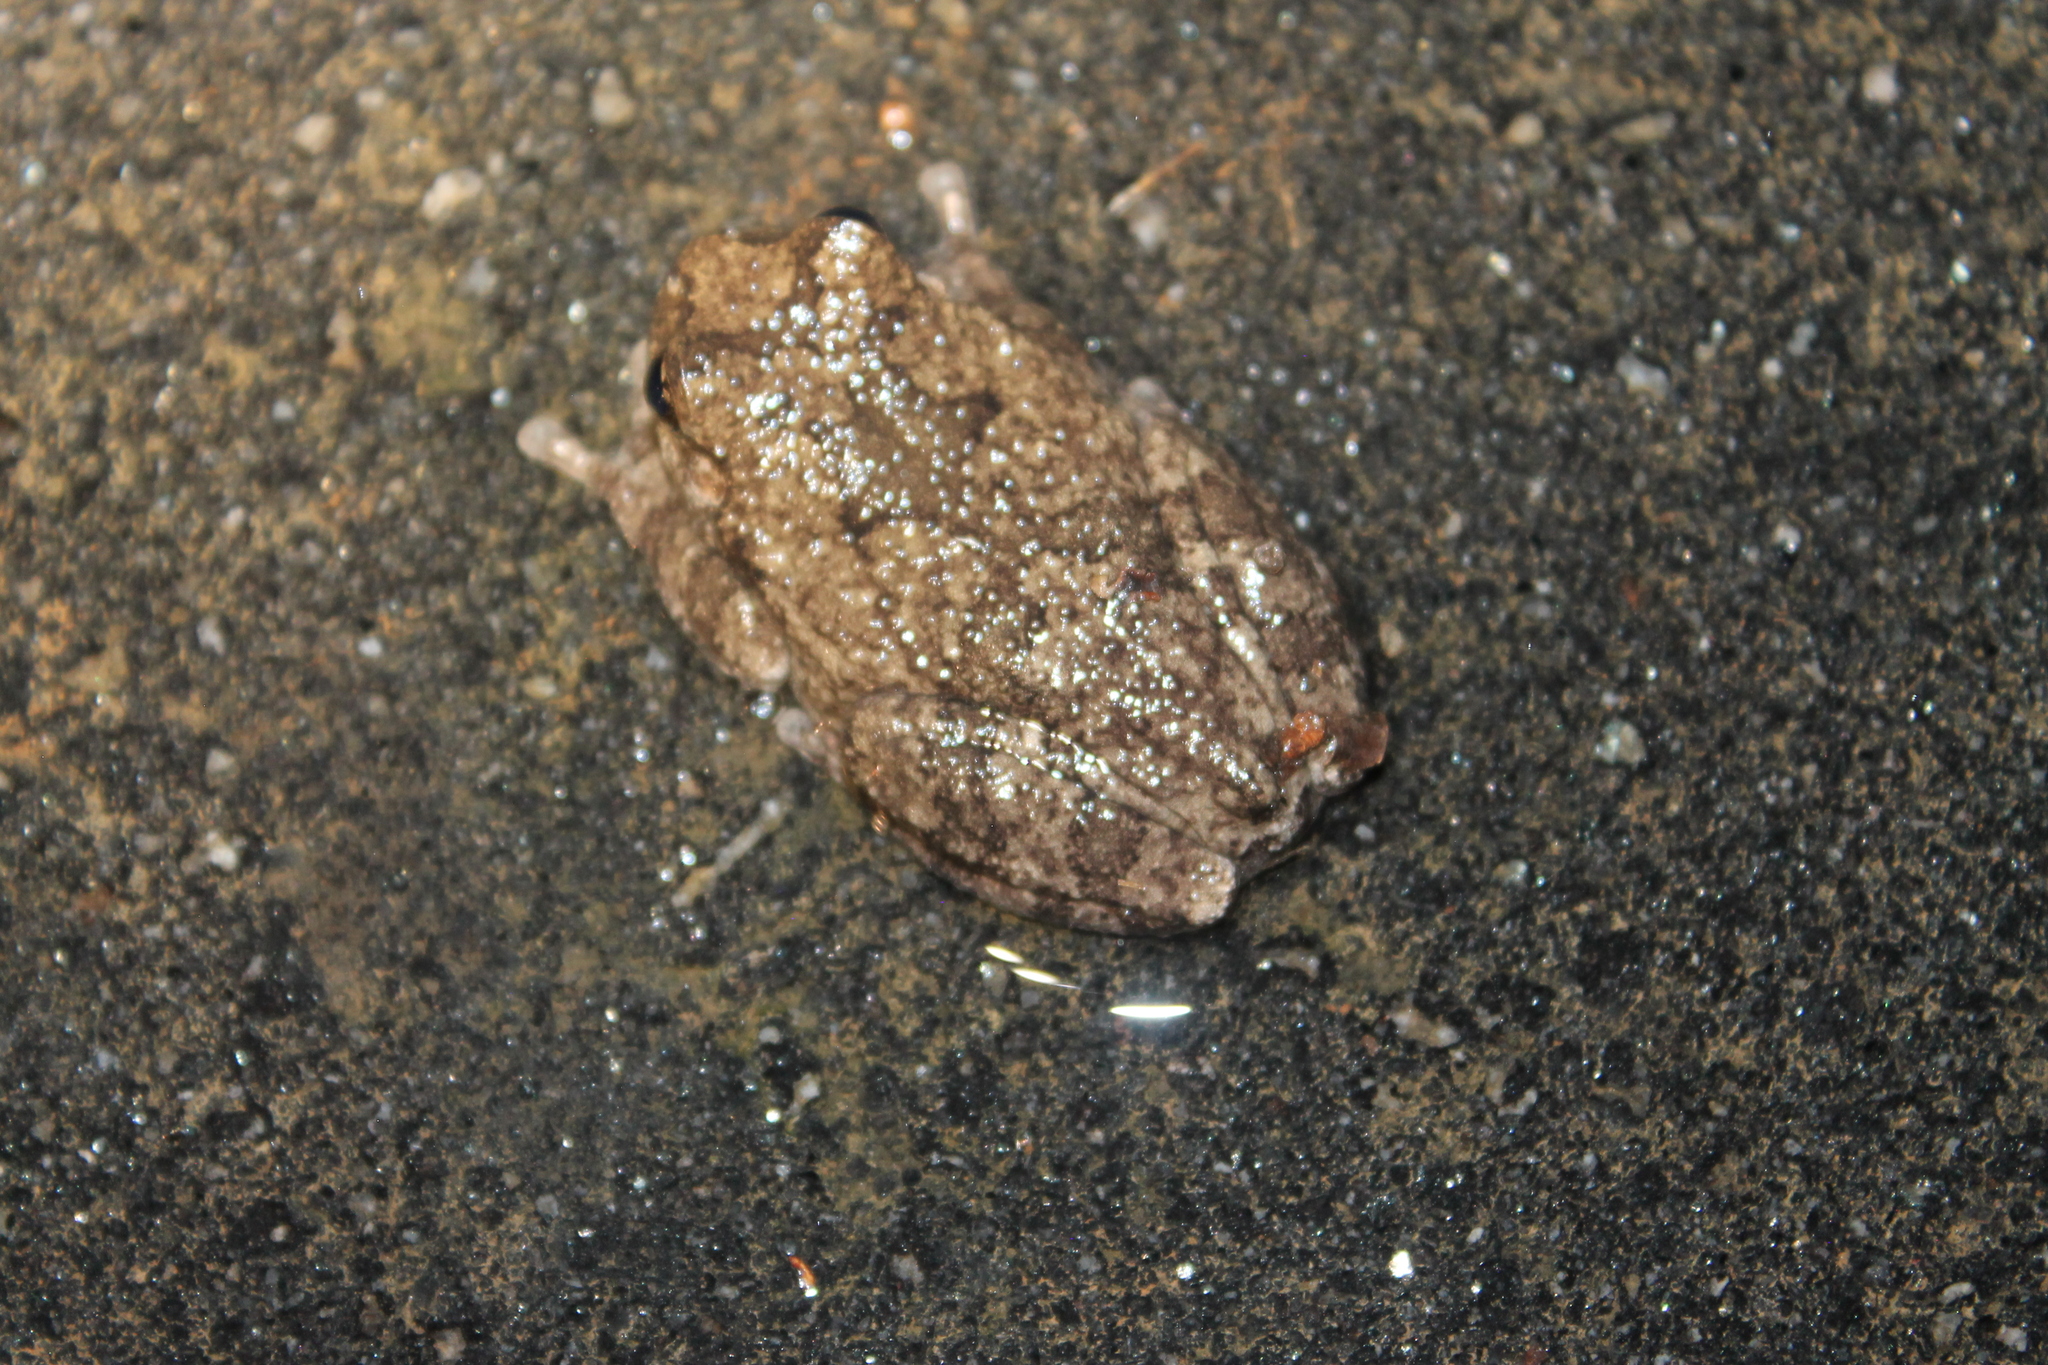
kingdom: Animalia
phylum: Chordata
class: Amphibia
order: Anura
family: Hylidae
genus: Dryophytes
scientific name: Dryophytes chrysoscelis
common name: Cope's gray treefrog
